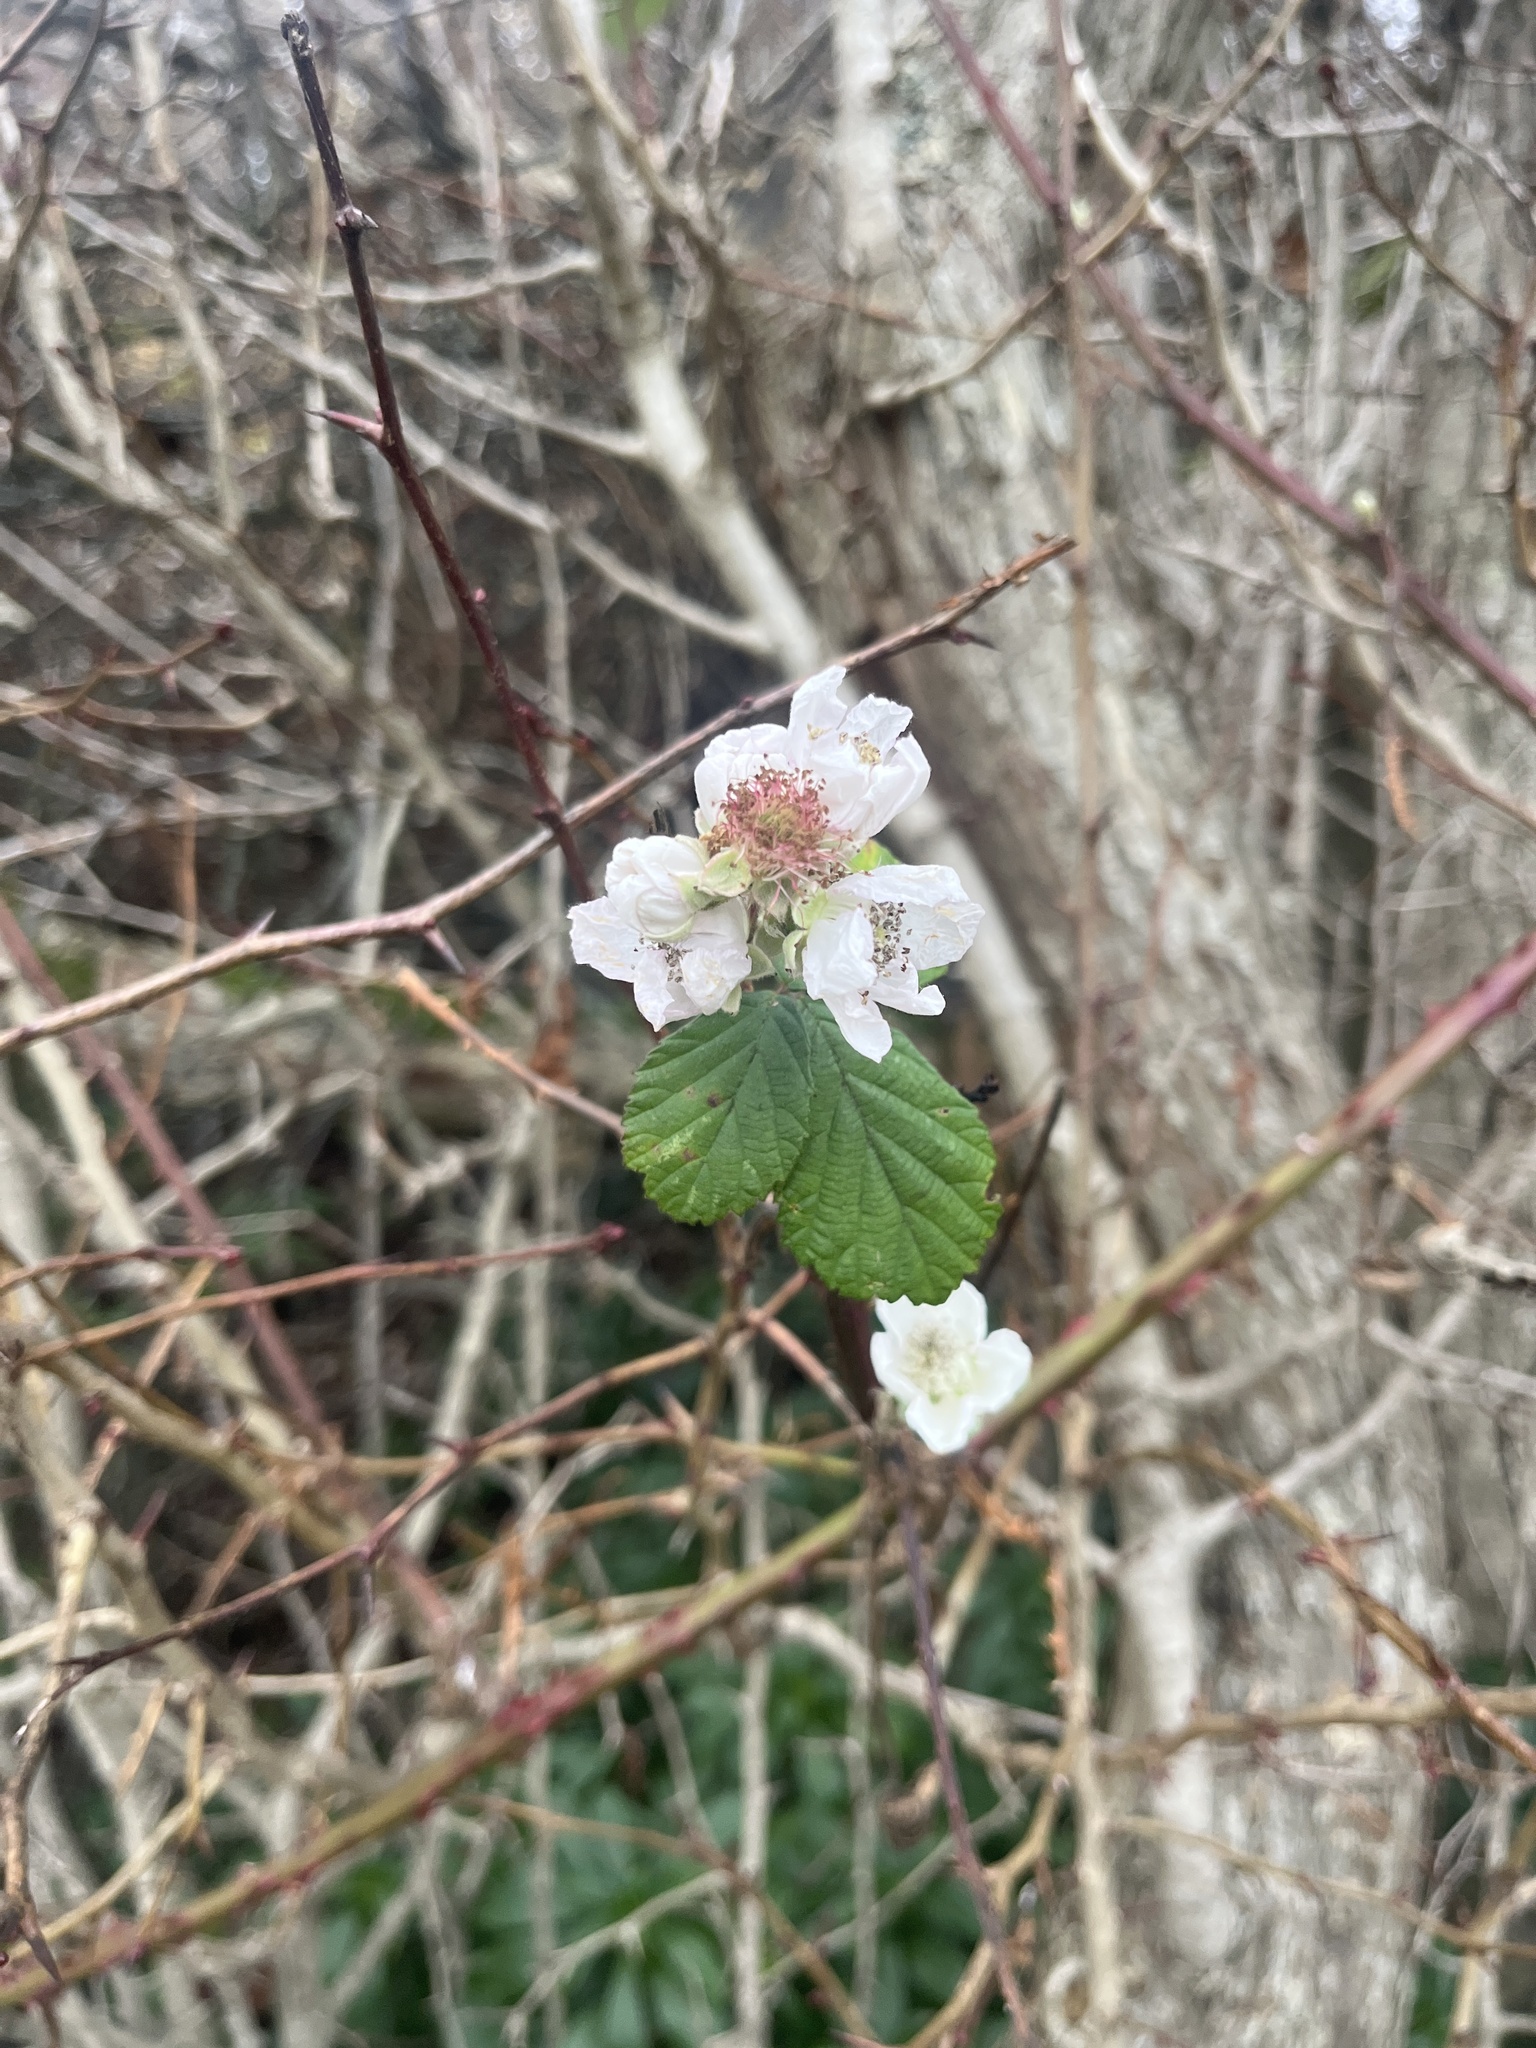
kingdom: Plantae
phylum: Tracheophyta
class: Magnoliopsida
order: Rosales
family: Rosaceae
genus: Rubus
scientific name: Rubus bifrons
